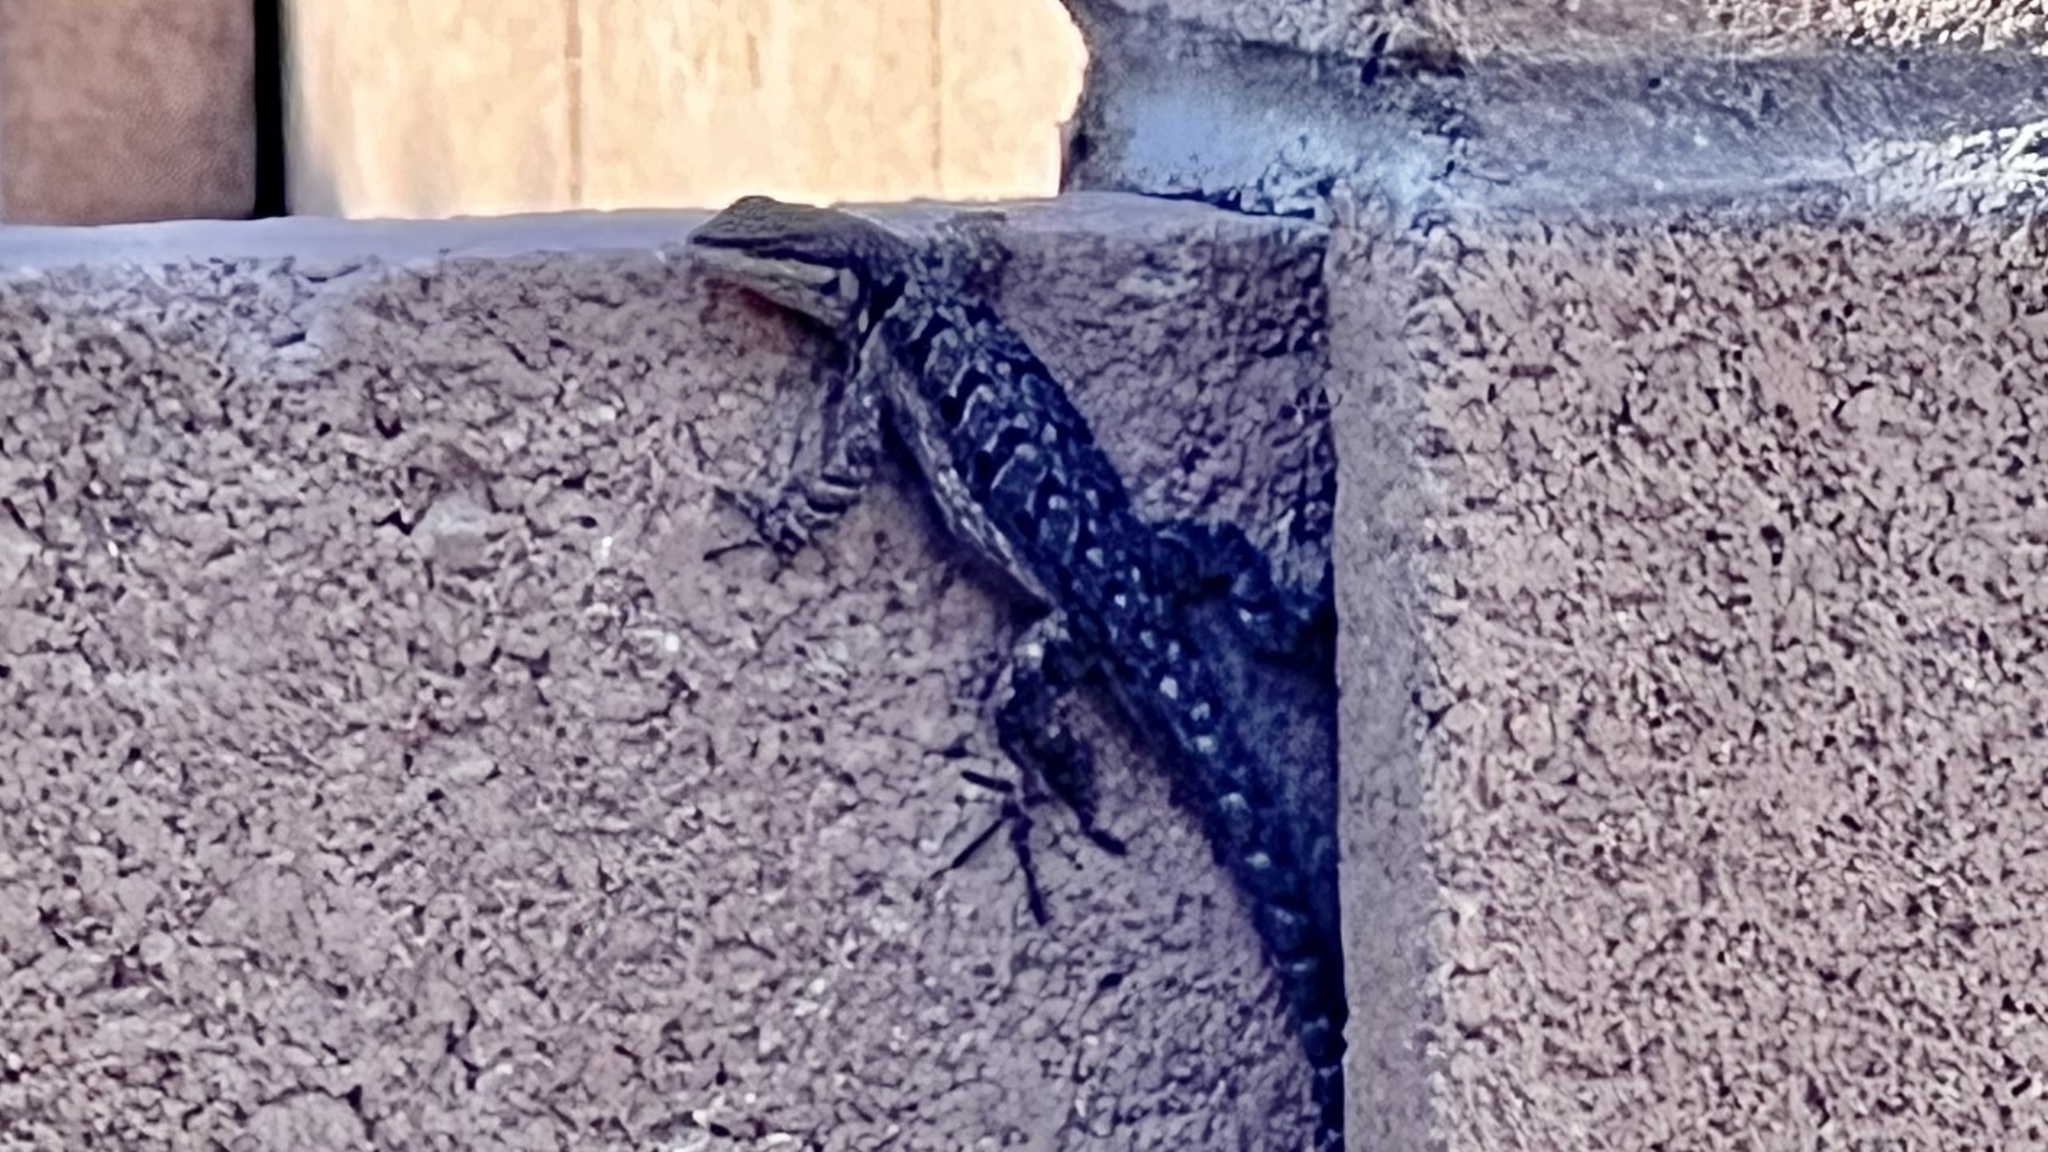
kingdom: Animalia
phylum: Chordata
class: Squamata
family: Phrynosomatidae
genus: Urosaurus
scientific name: Urosaurus ornatus
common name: Ornate tree lizard
